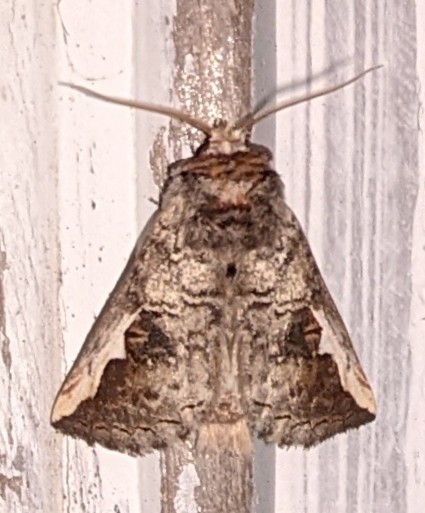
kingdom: Animalia
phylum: Arthropoda
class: Insecta
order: Lepidoptera
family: Notodontidae
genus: Symmerista
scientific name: Symmerista albifrons
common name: White-headed prominent
